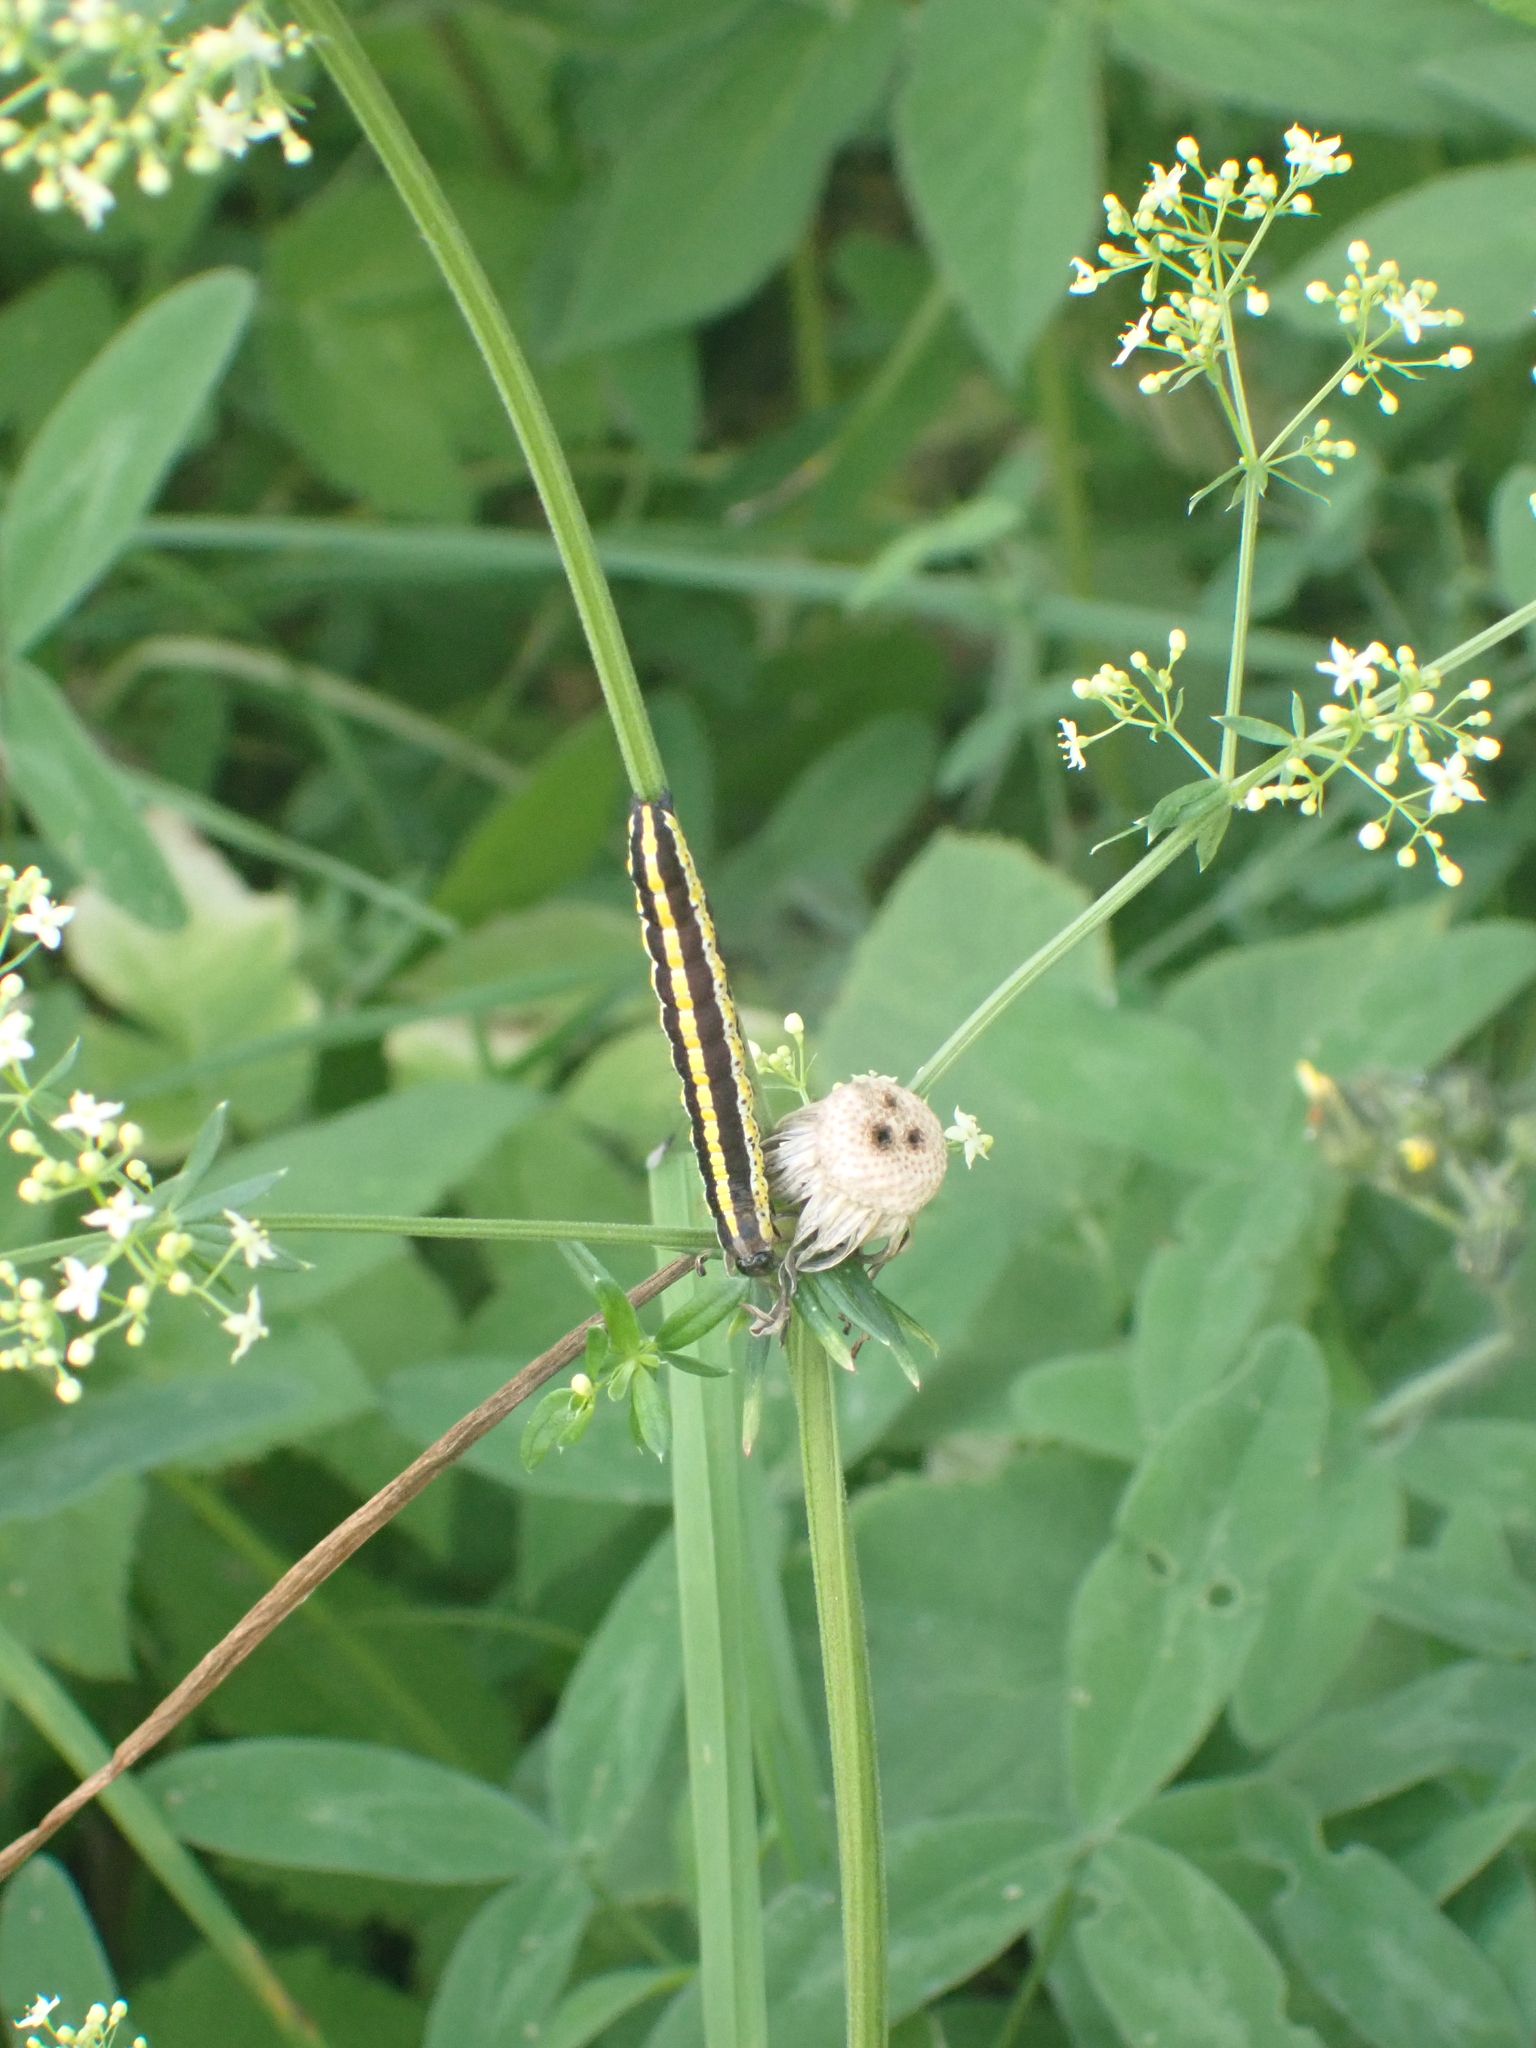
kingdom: Animalia
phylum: Arthropoda
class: Insecta
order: Lepidoptera
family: Noctuidae
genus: Cucullia
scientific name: Cucullia lucifuga
